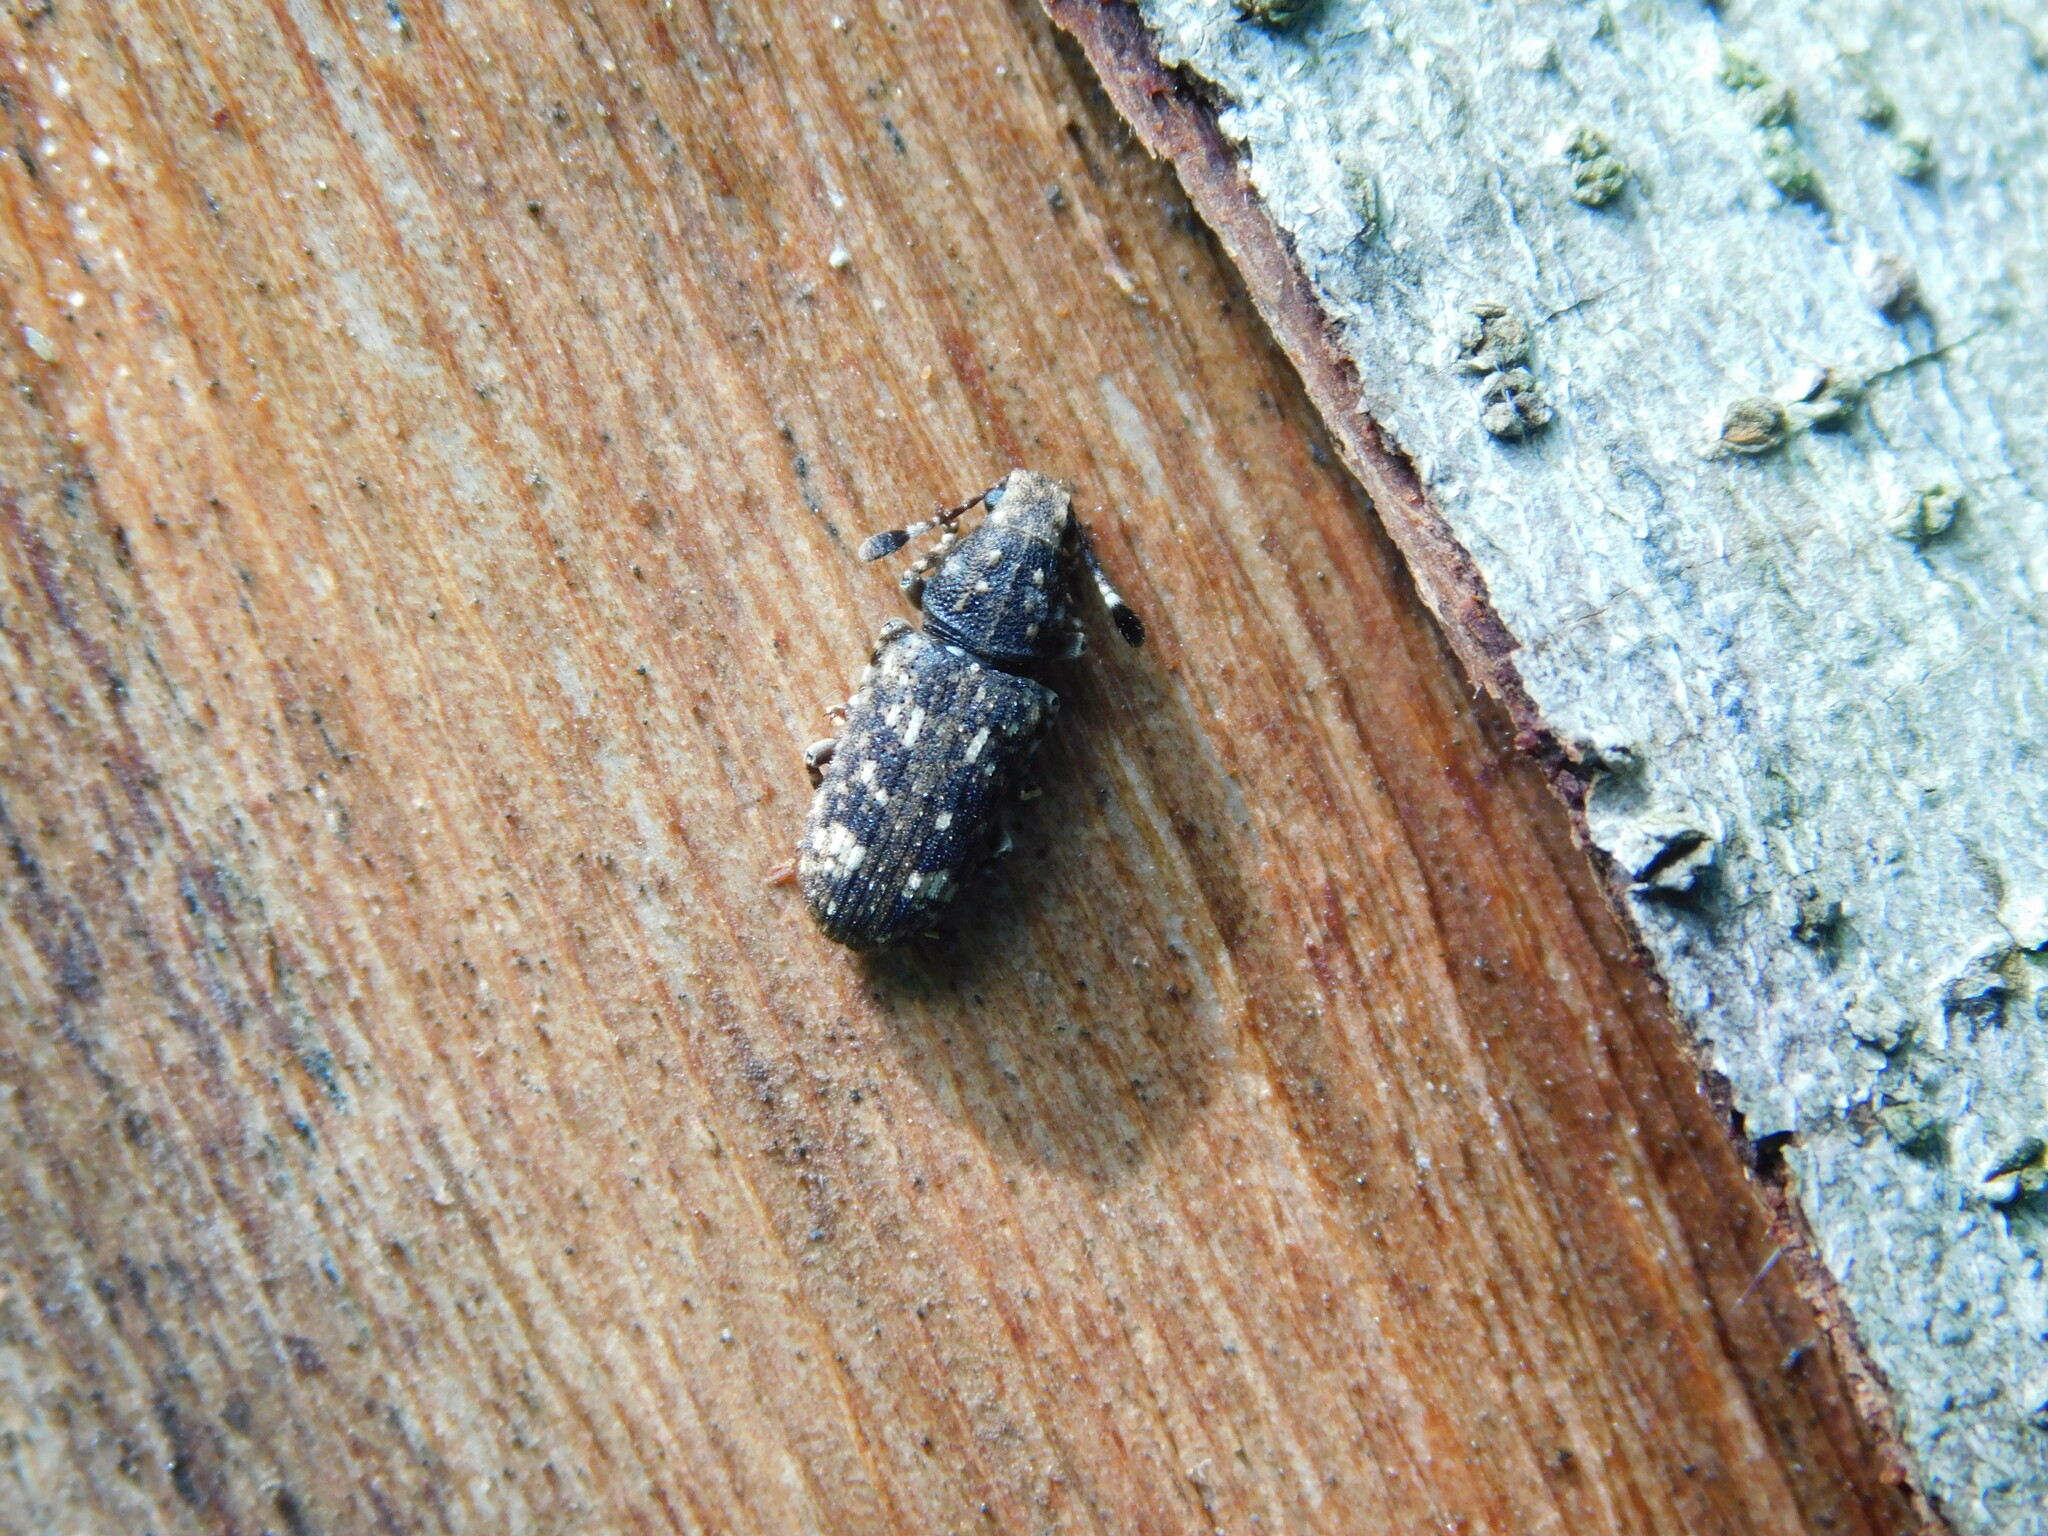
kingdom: Animalia
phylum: Arthropoda
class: Insecta
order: Coleoptera
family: Anthribidae
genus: Eucorynus
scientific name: Eucorynus crassicornis
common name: Fungus weevil
